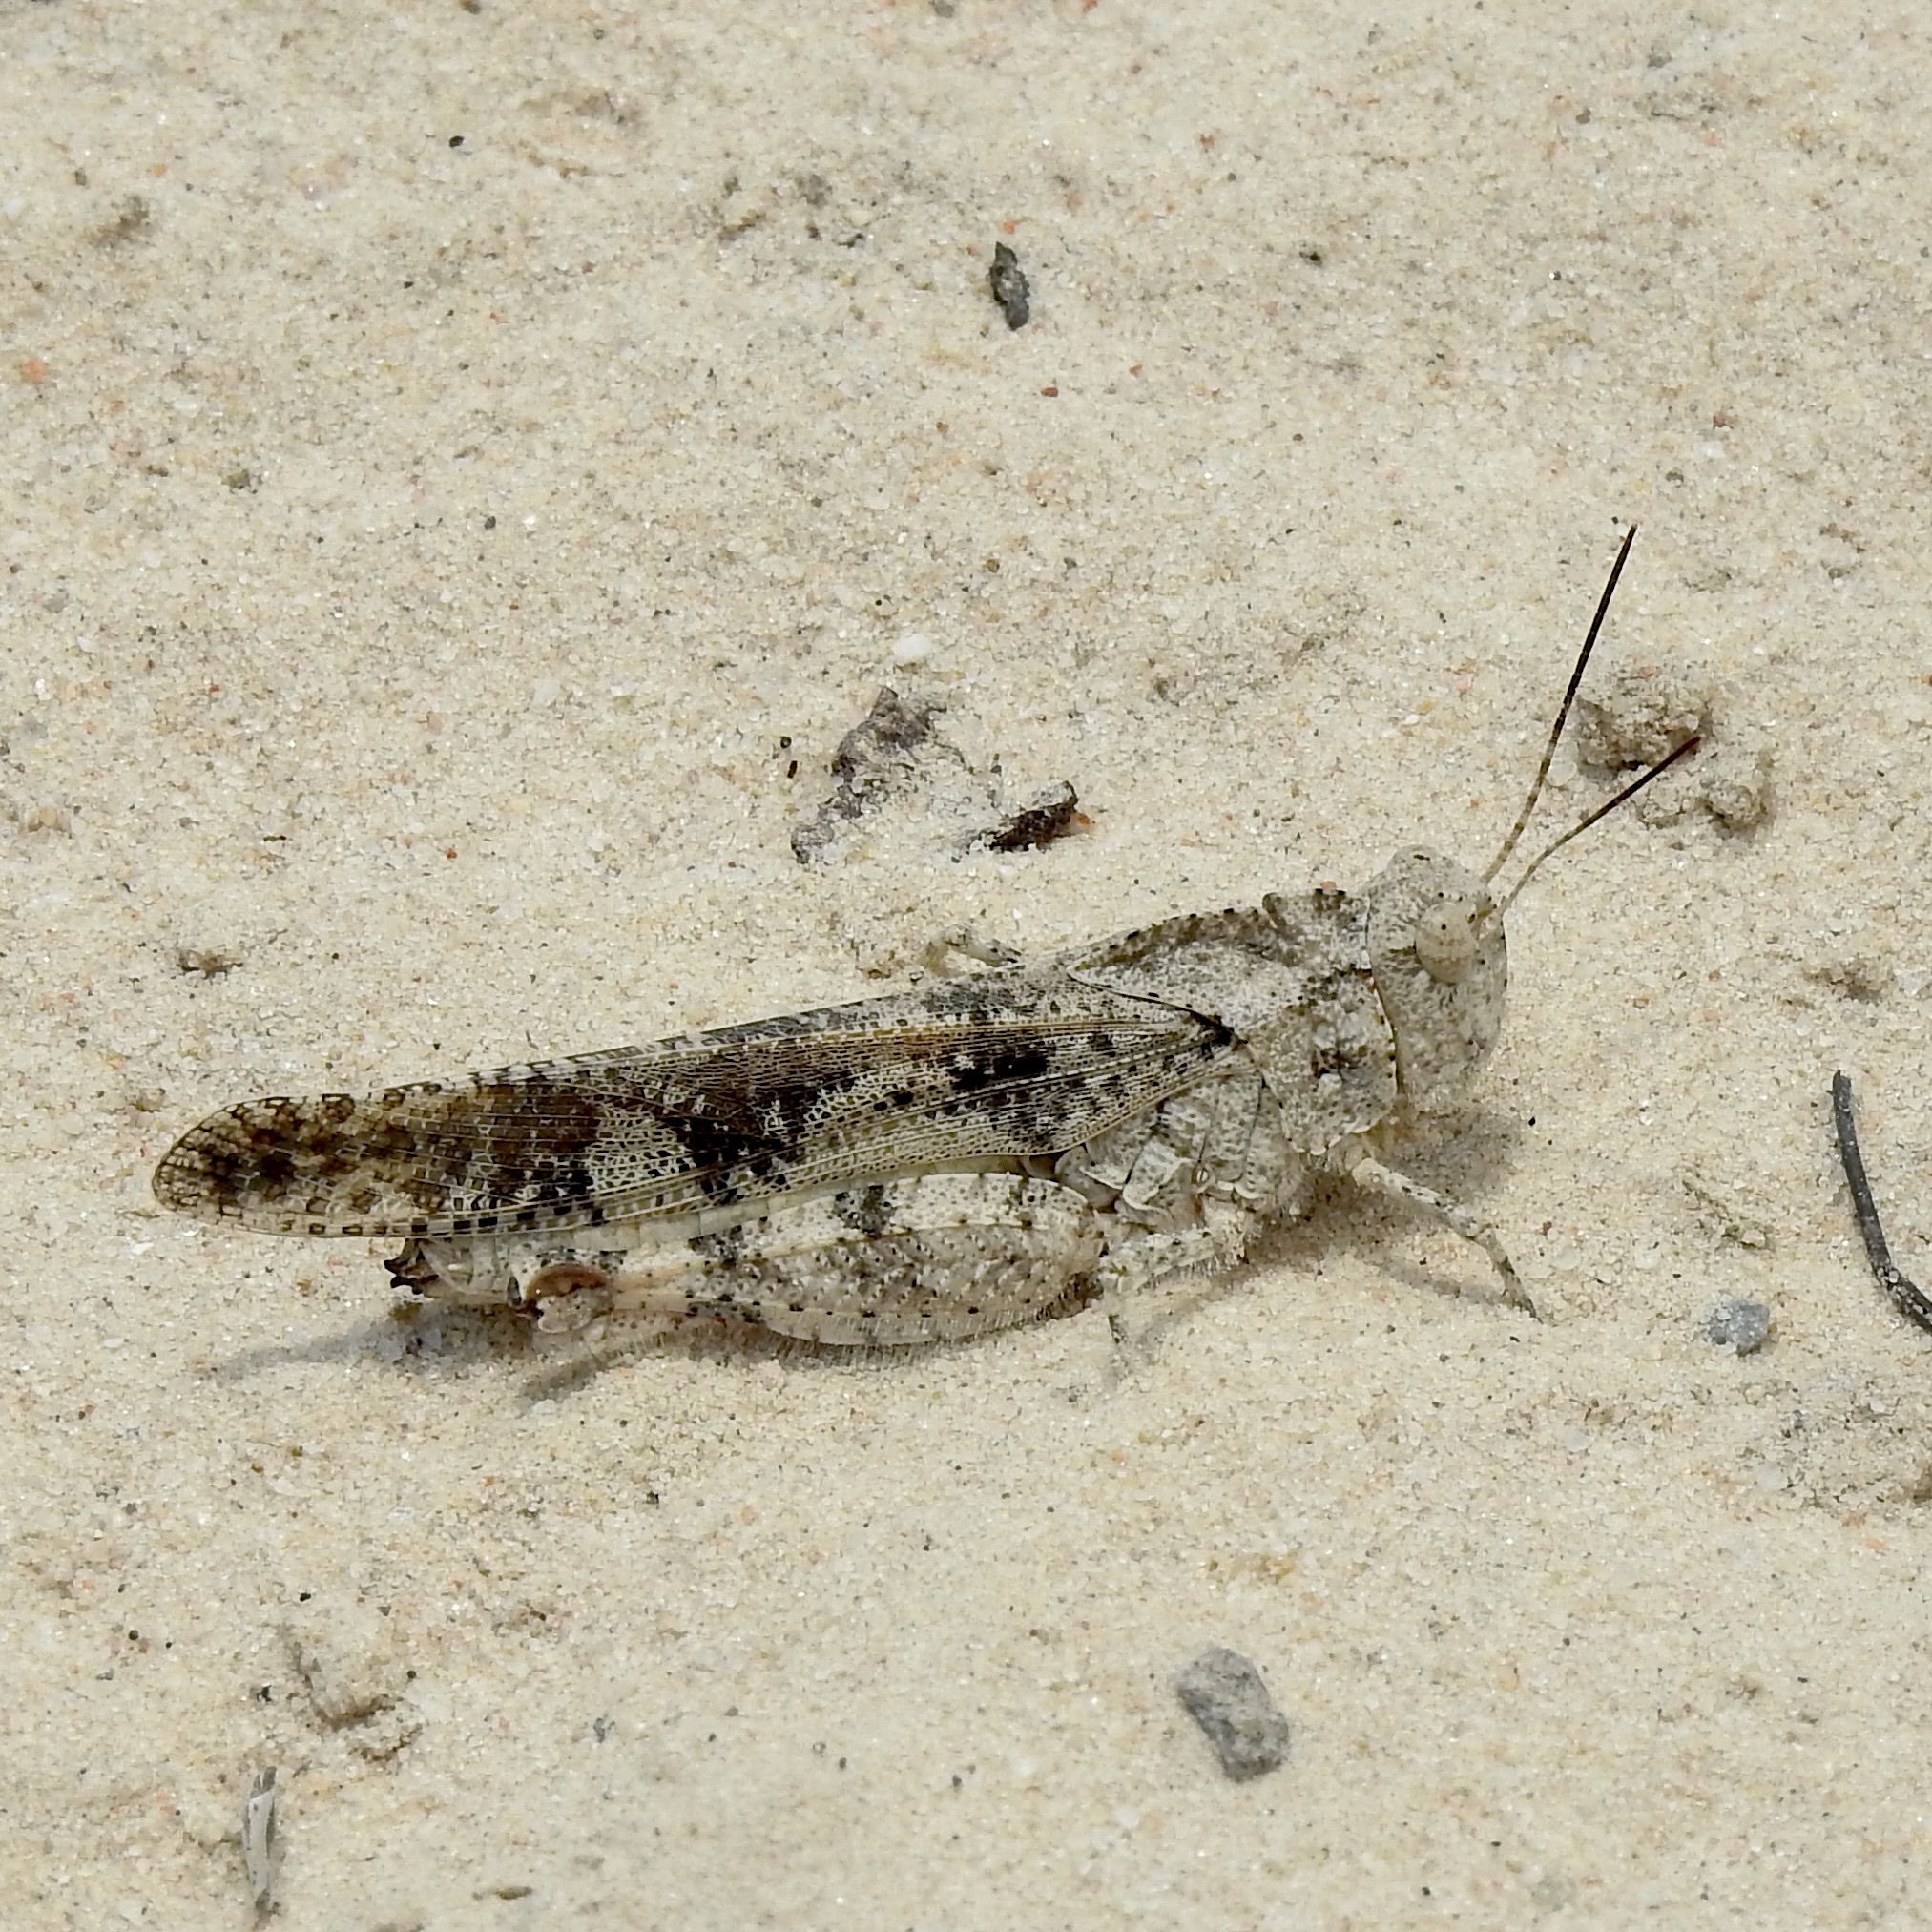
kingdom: Animalia
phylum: Arthropoda
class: Insecta
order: Orthoptera
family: Acrididae
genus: Spharagemon
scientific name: Spharagemon cristatum
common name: Ridgeback sand grasshopper
